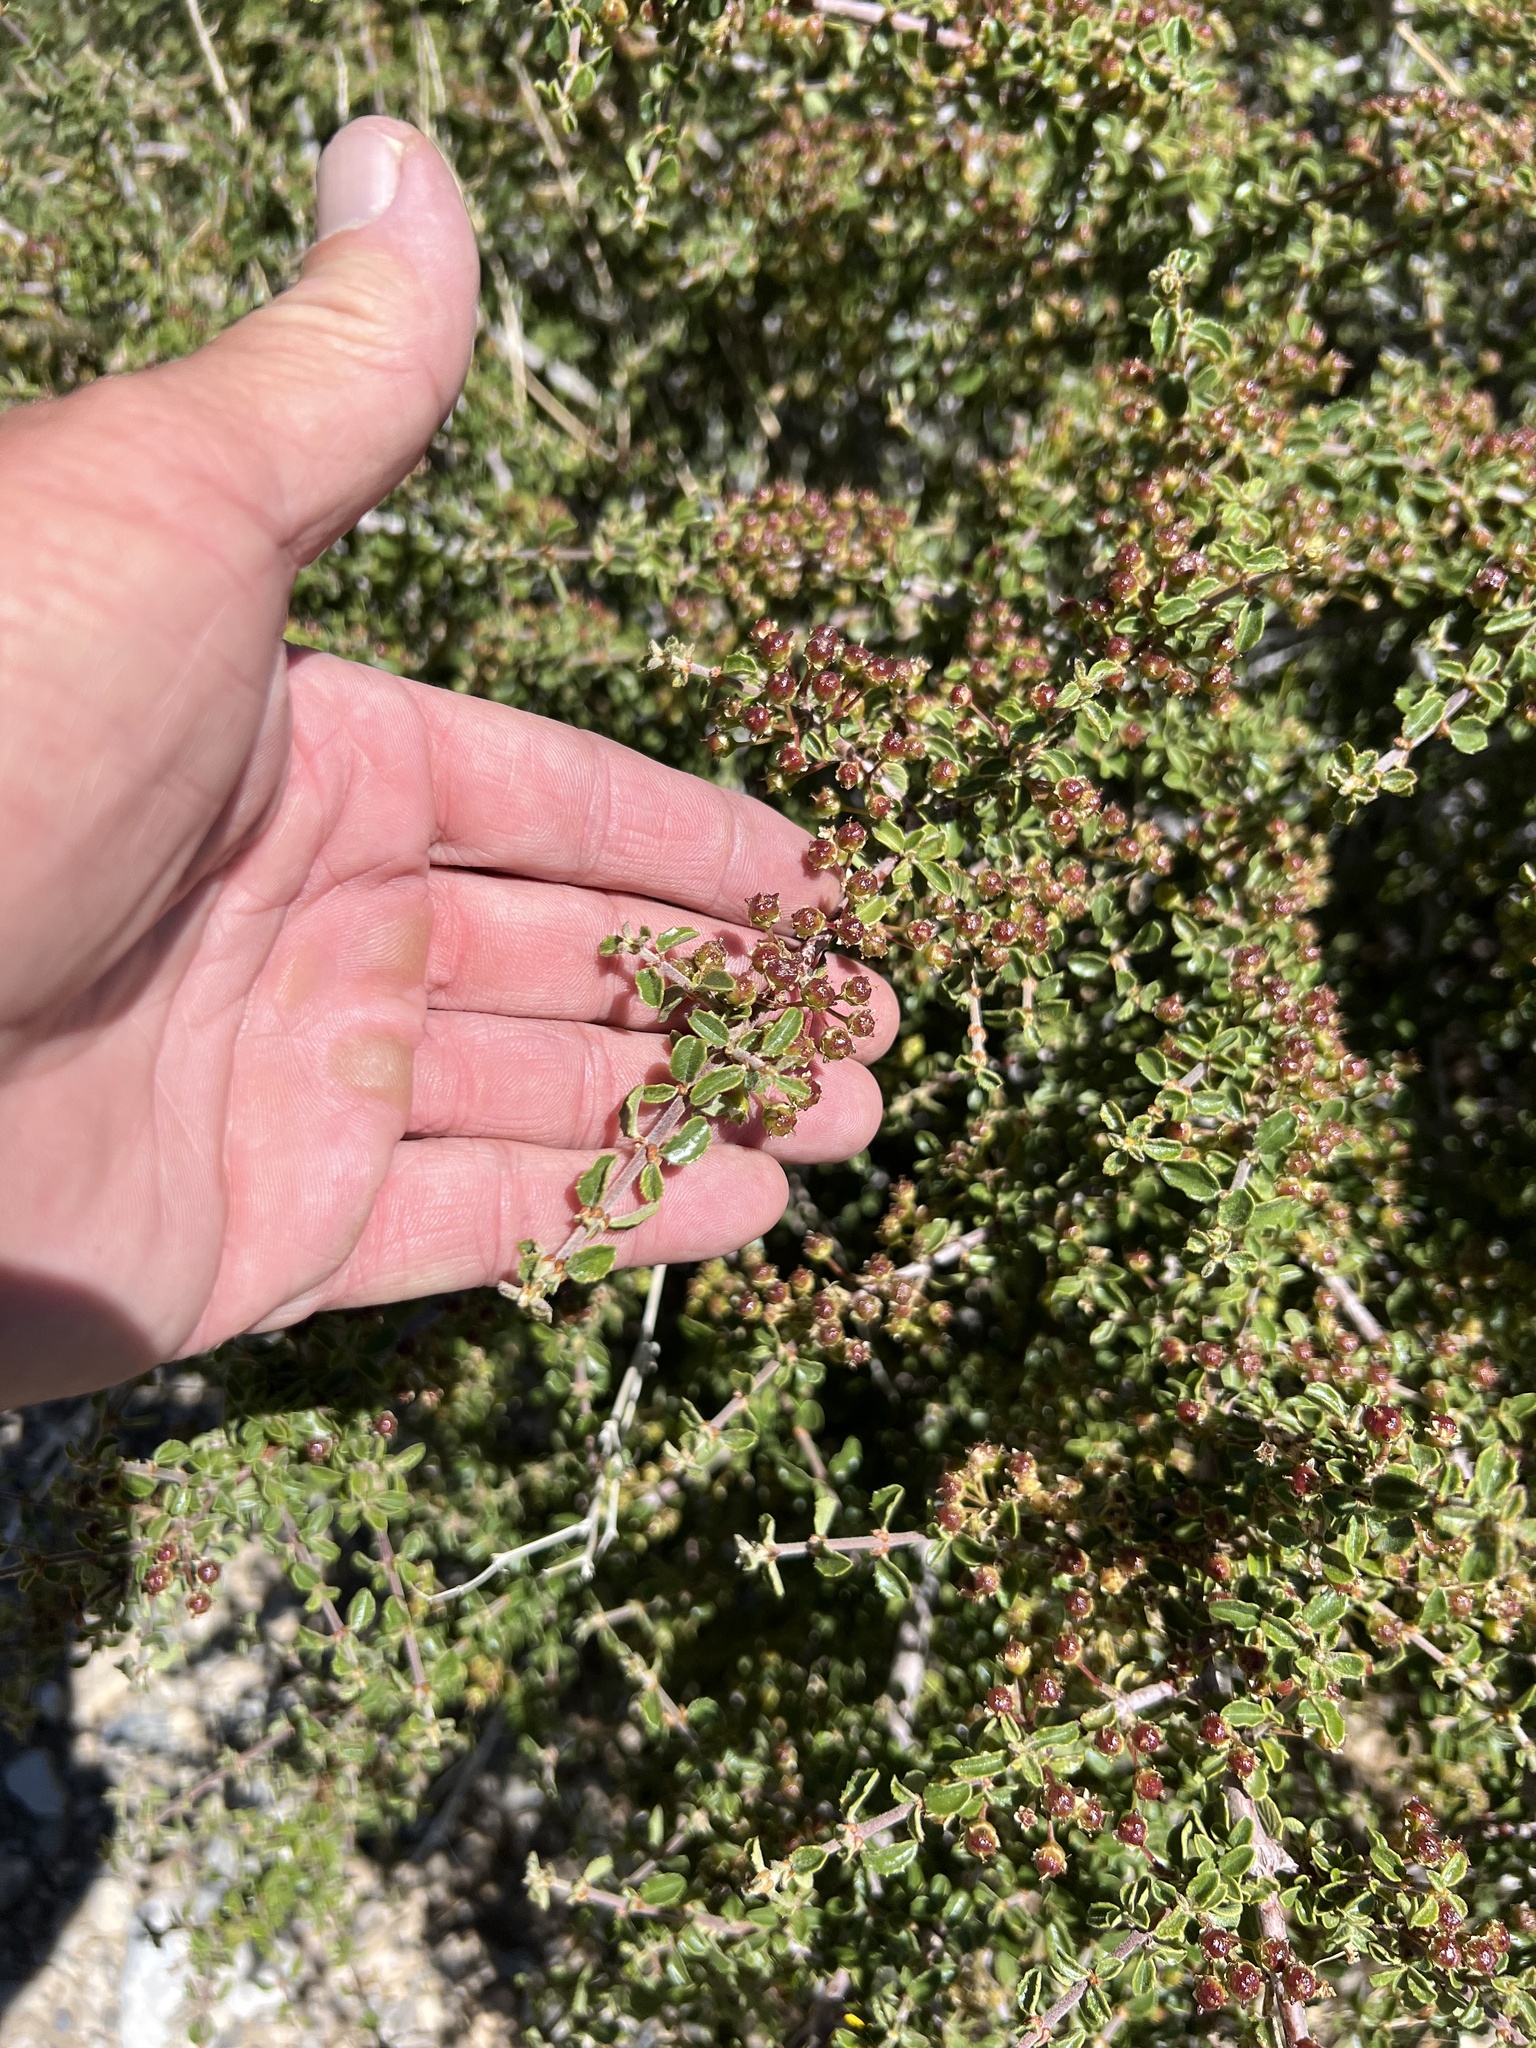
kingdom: Plantae
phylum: Tracheophyta
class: Magnoliopsida
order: Rosales
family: Rhamnaceae
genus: Ceanothus
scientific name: Ceanothus pauciflorus
